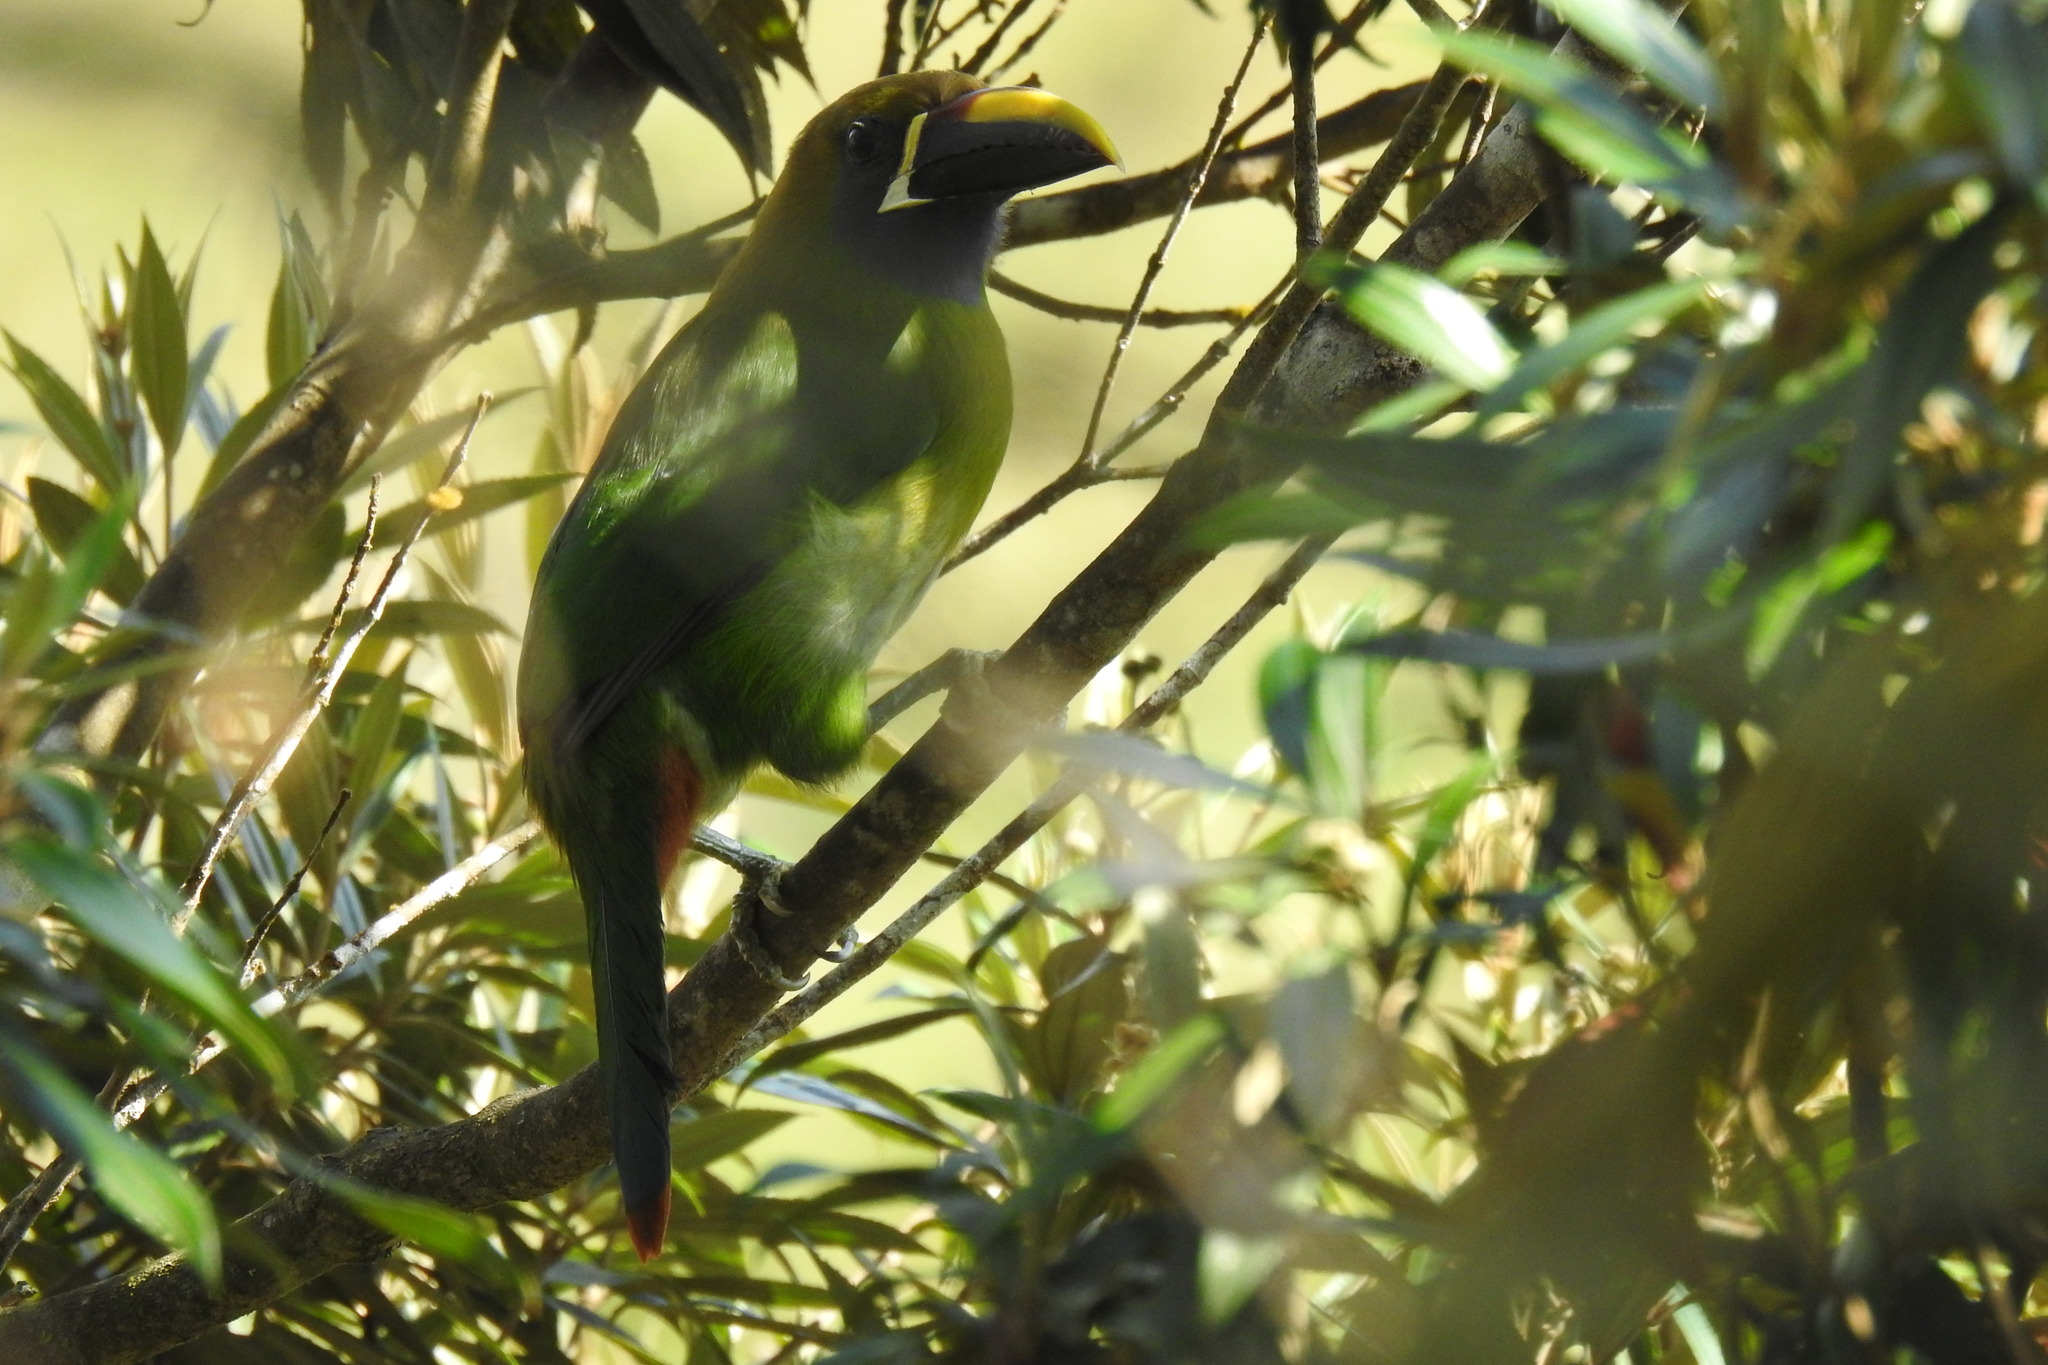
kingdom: Animalia
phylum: Chordata
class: Aves
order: Piciformes
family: Ramphastidae
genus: Aulacorhynchus
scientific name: Aulacorhynchus prasinus
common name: Emerald toucanet
